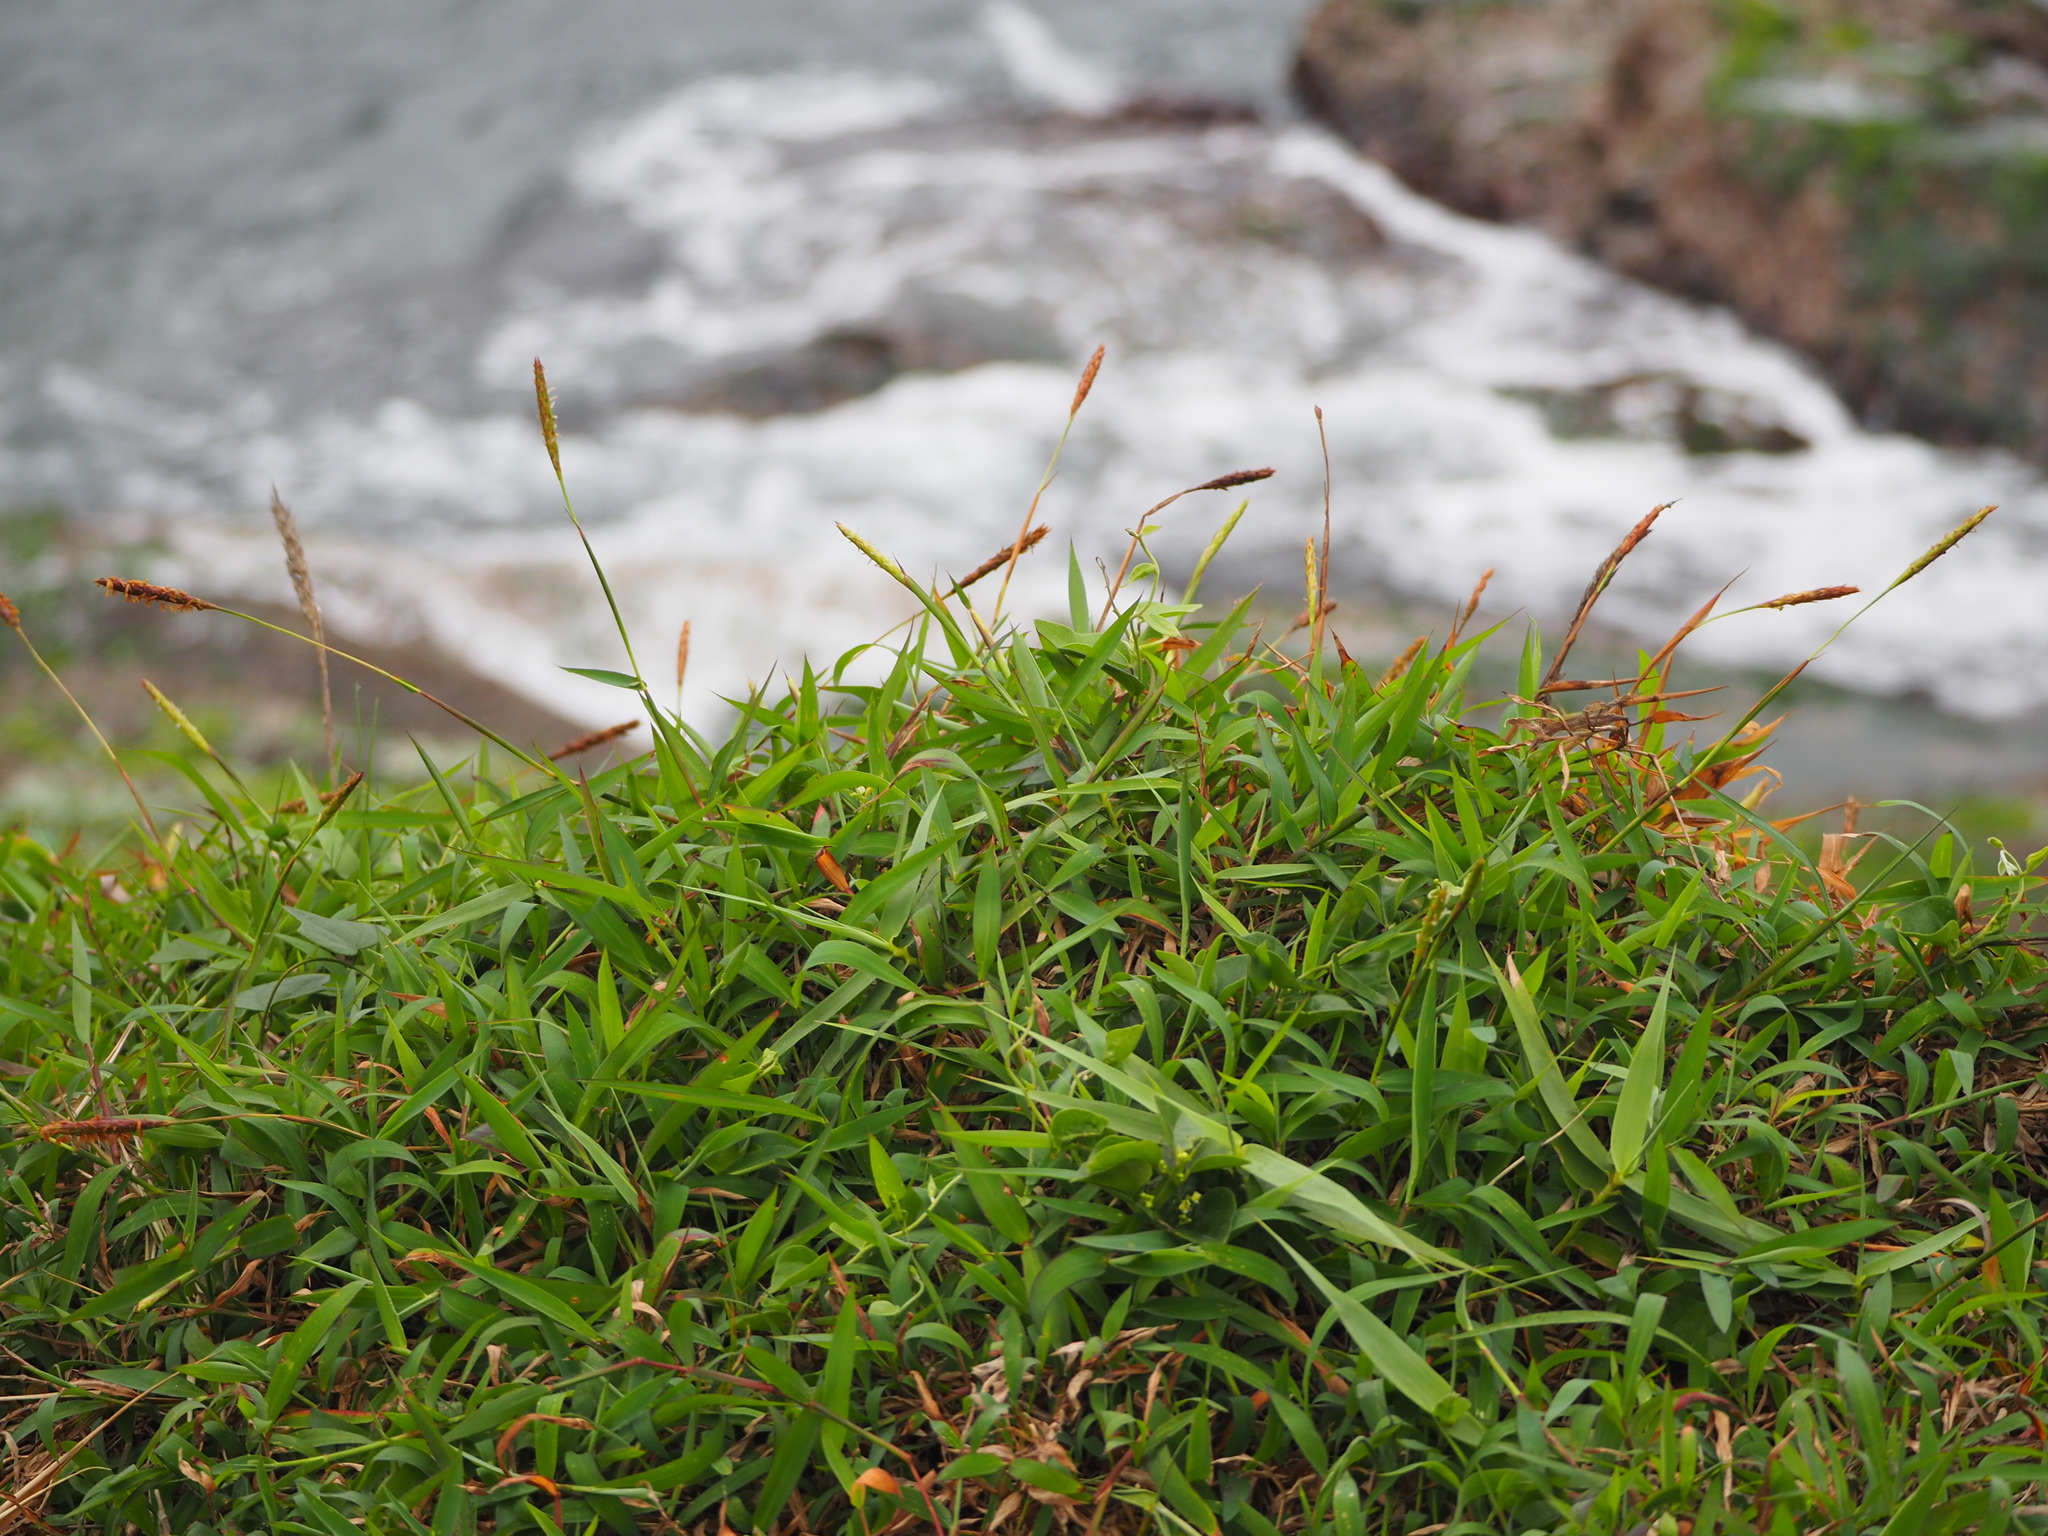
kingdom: Plantae
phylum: Tracheophyta
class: Liliopsida
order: Poales
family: Poaceae
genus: Ischaemum
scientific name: Ischaemum ciliare
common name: Grass
